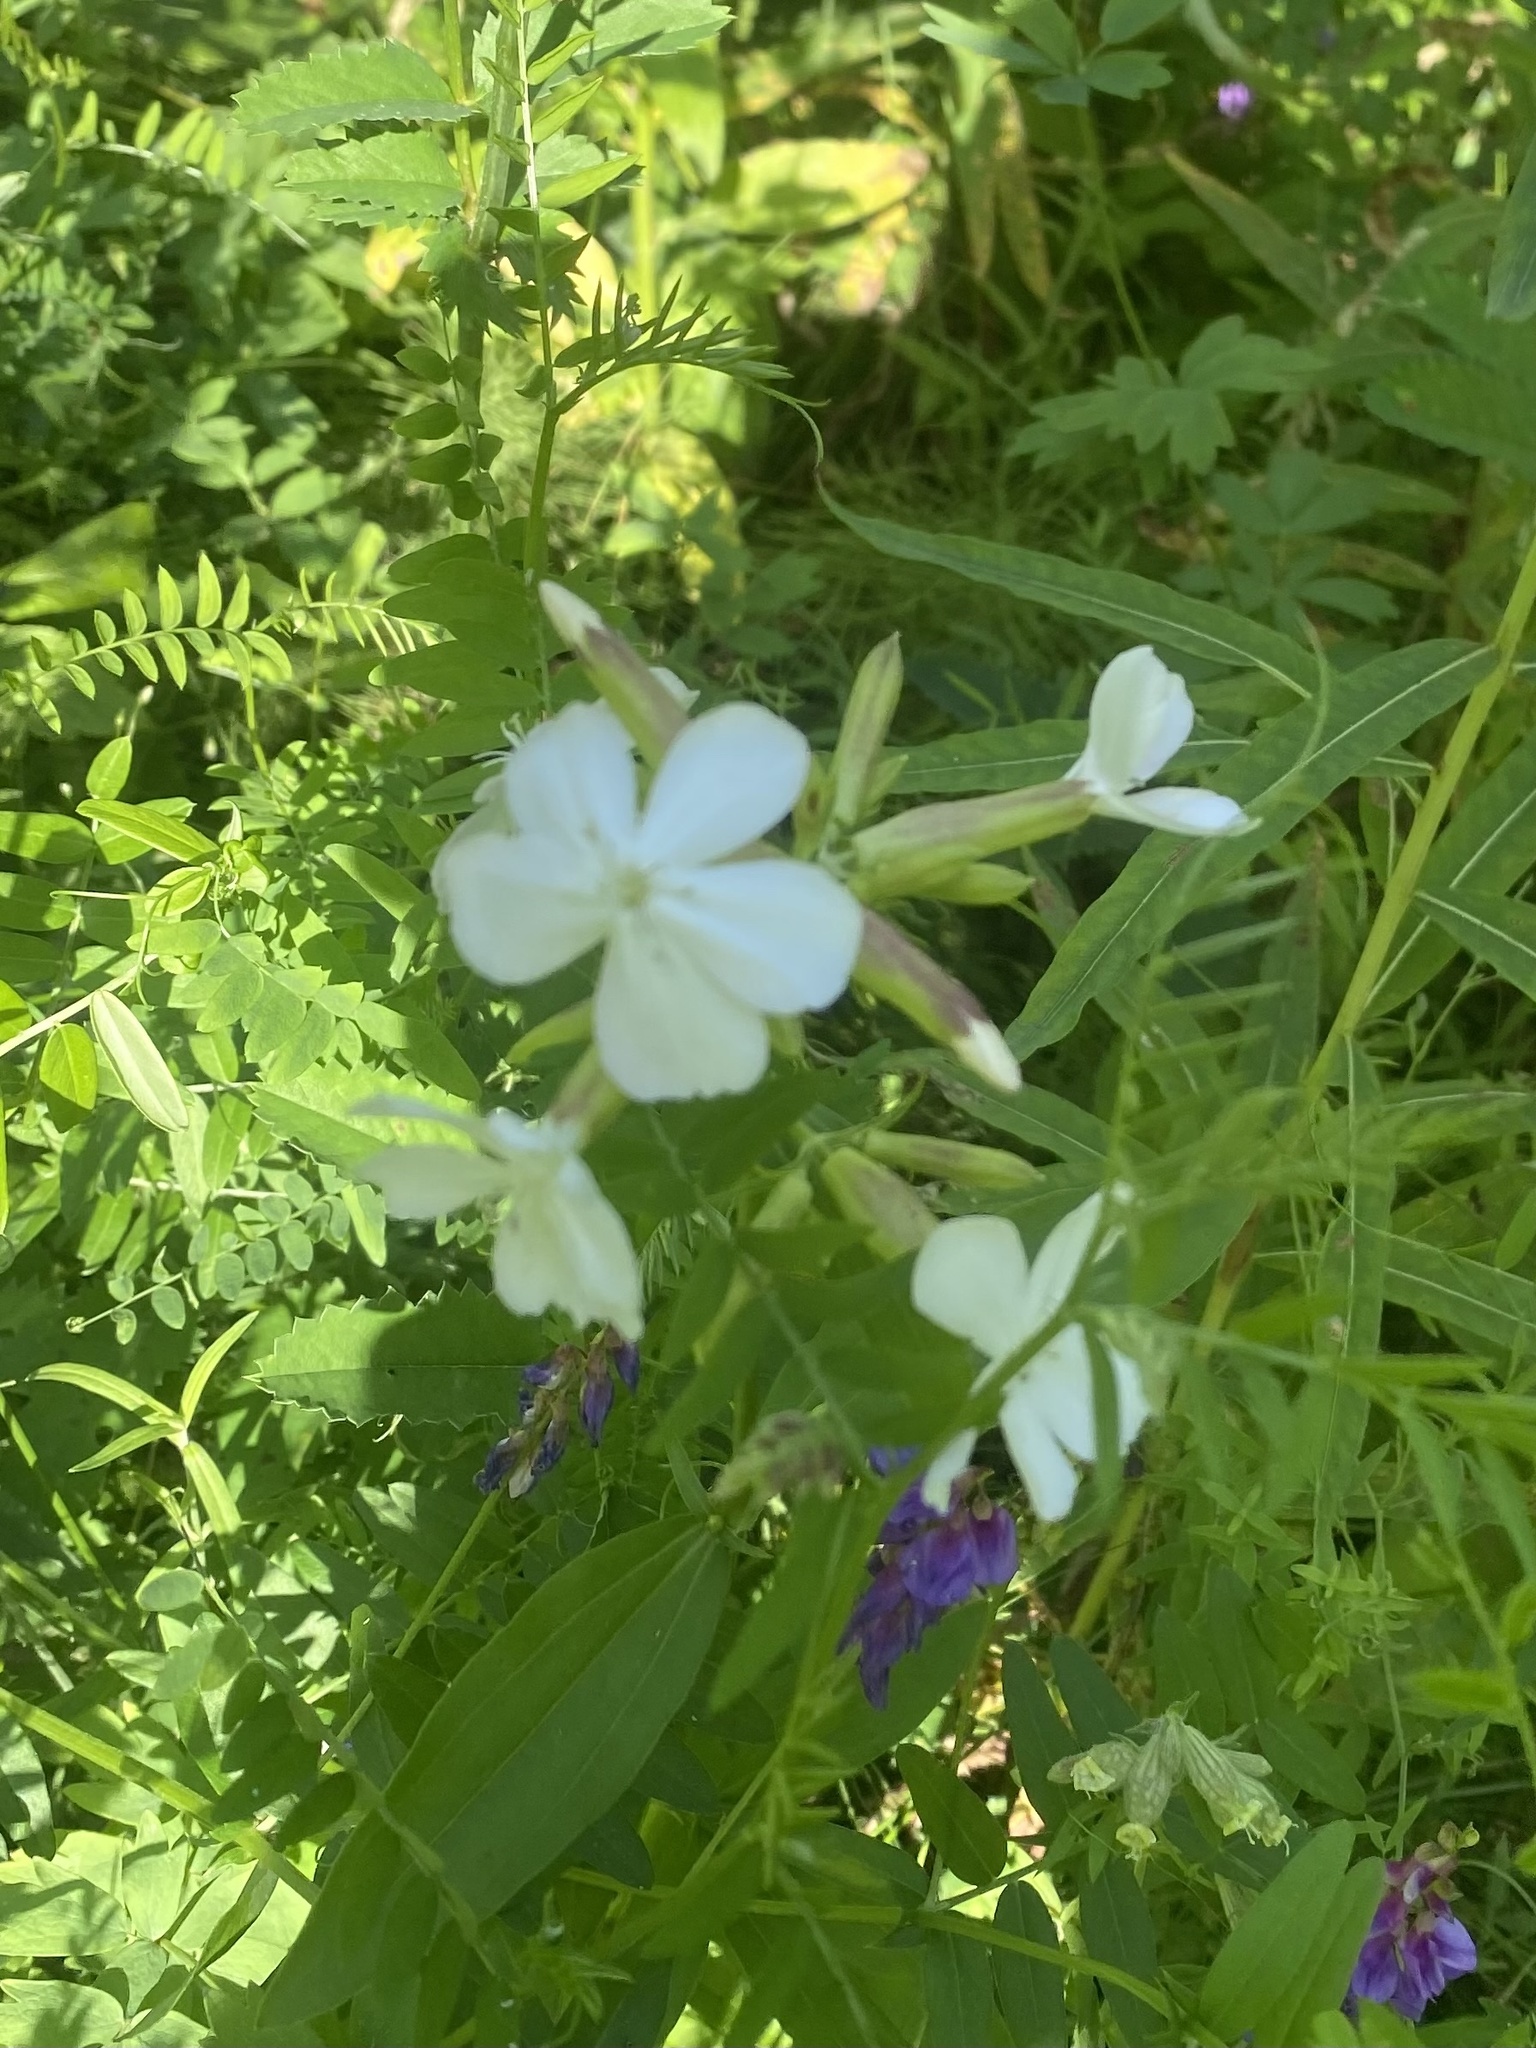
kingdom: Plantae
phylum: Tracheophyta
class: Magnoliopsida
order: Caryophyllales
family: Caryophyllaceae
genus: Saponaria
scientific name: Saponaria officinalis
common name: Soapwort
